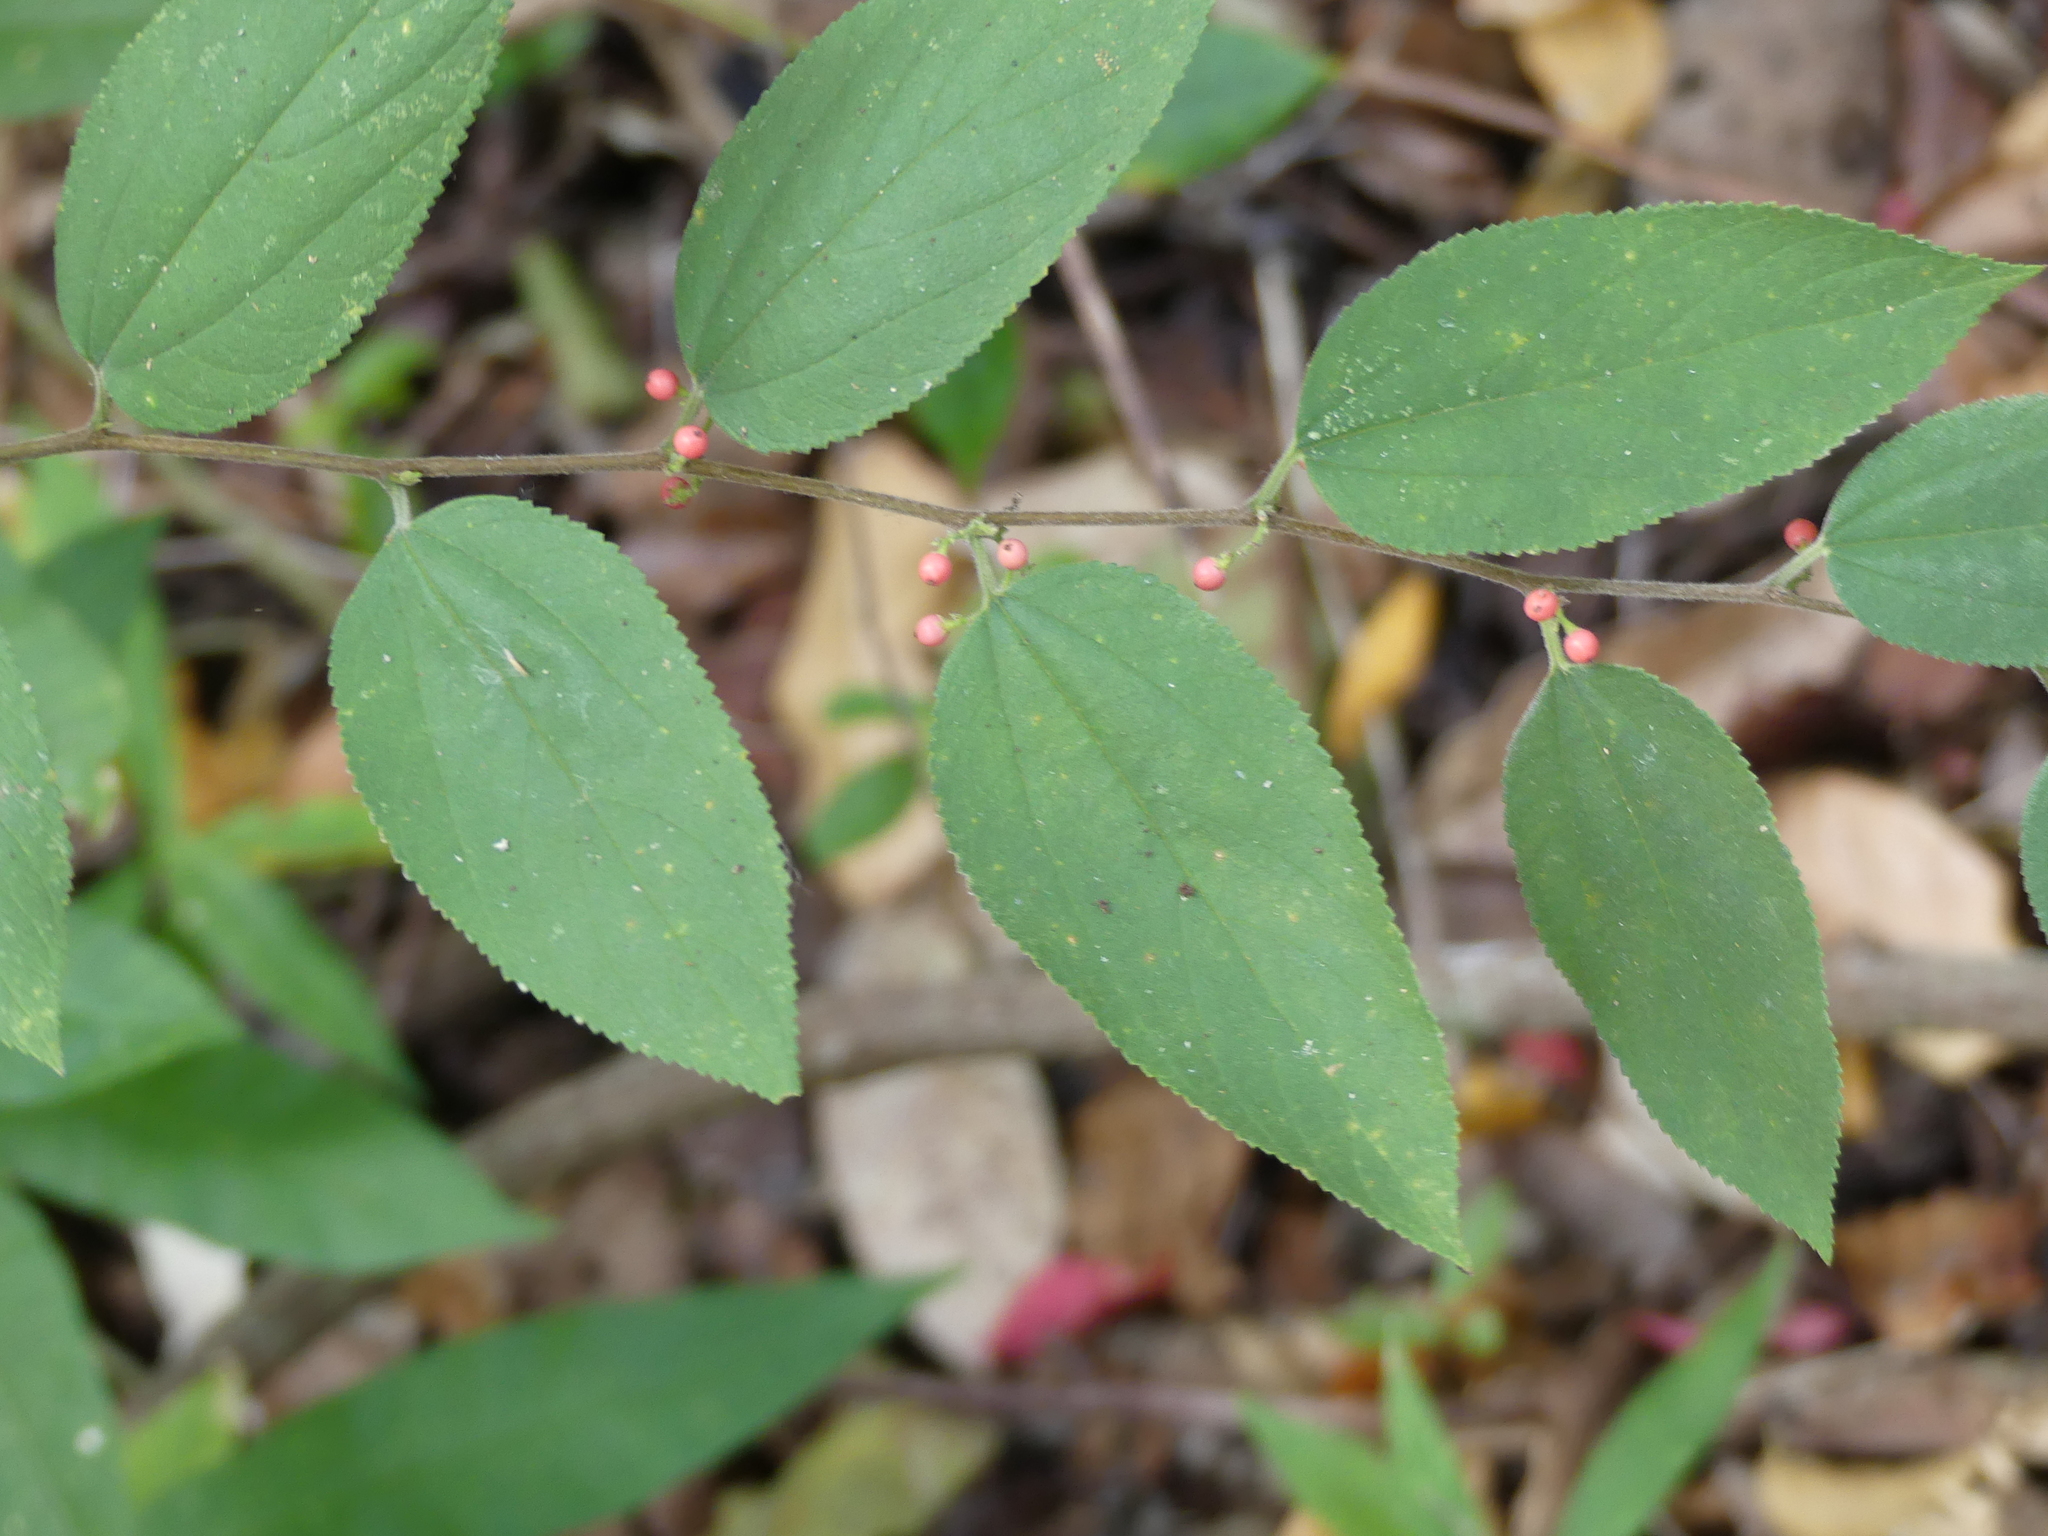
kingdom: Plantae
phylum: Tracheophyta
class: Magnoliopsida
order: Rosales
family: Cannabaceae
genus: Trema
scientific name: Trema micranthum
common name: Jamaican nettletree
